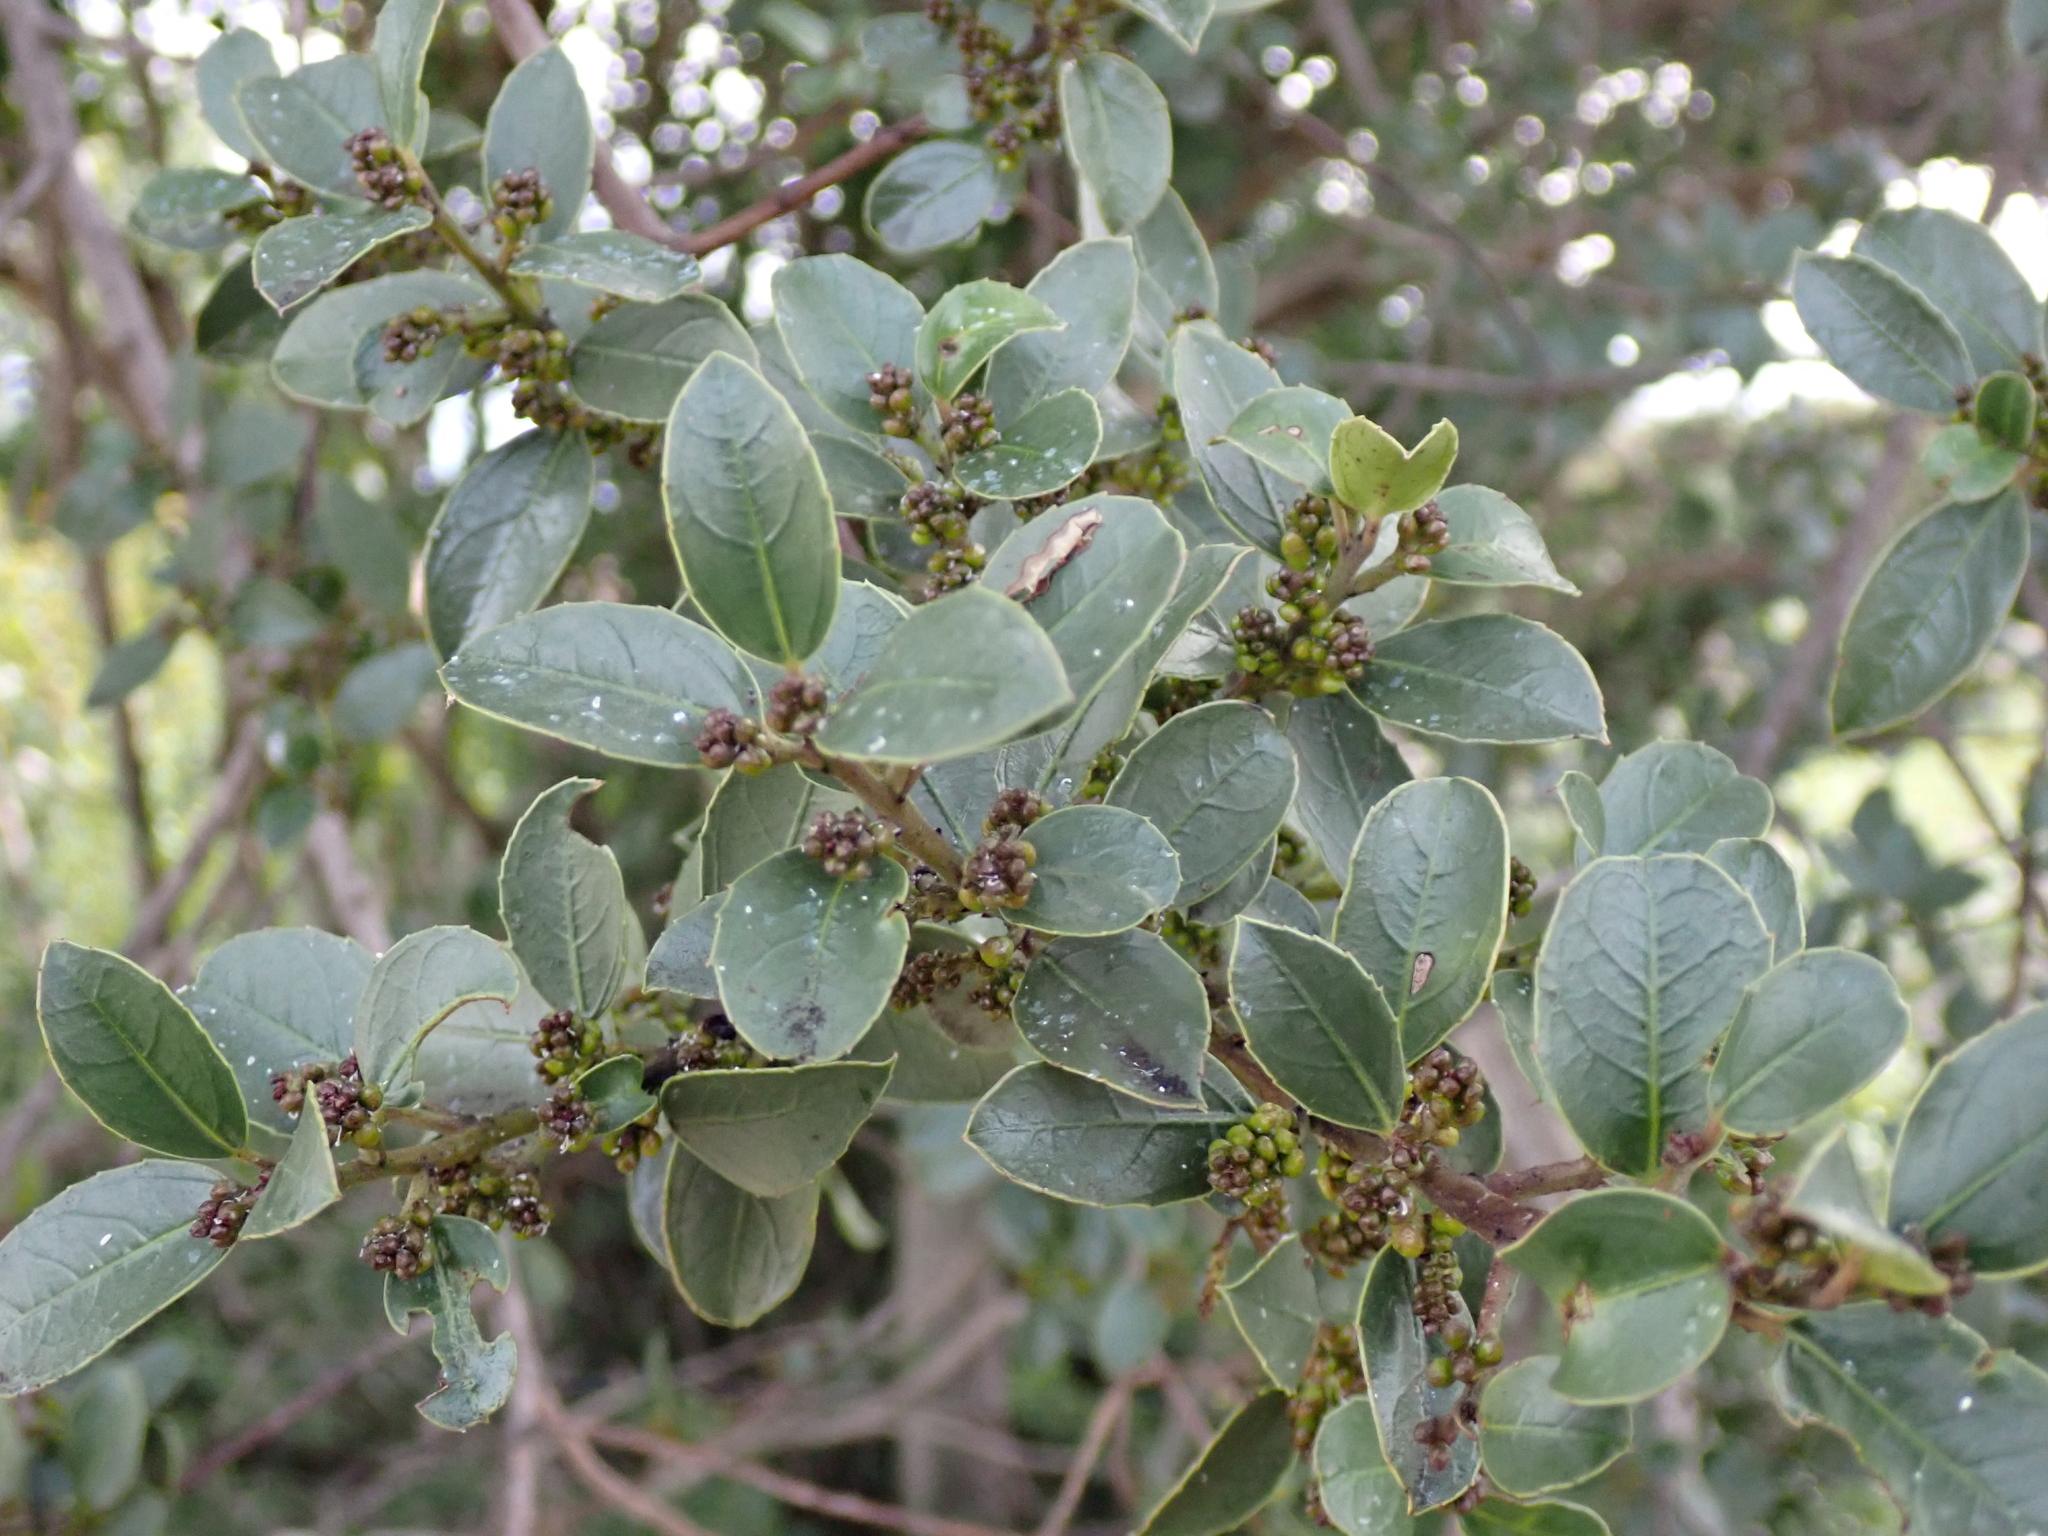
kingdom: Plantae
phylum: Tracheophyta
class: Magnoliopsida
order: Rosales
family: Rhamnaceae
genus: Rhamnus
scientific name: Rhamnus alaternus
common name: Mediterranean buckthorn
